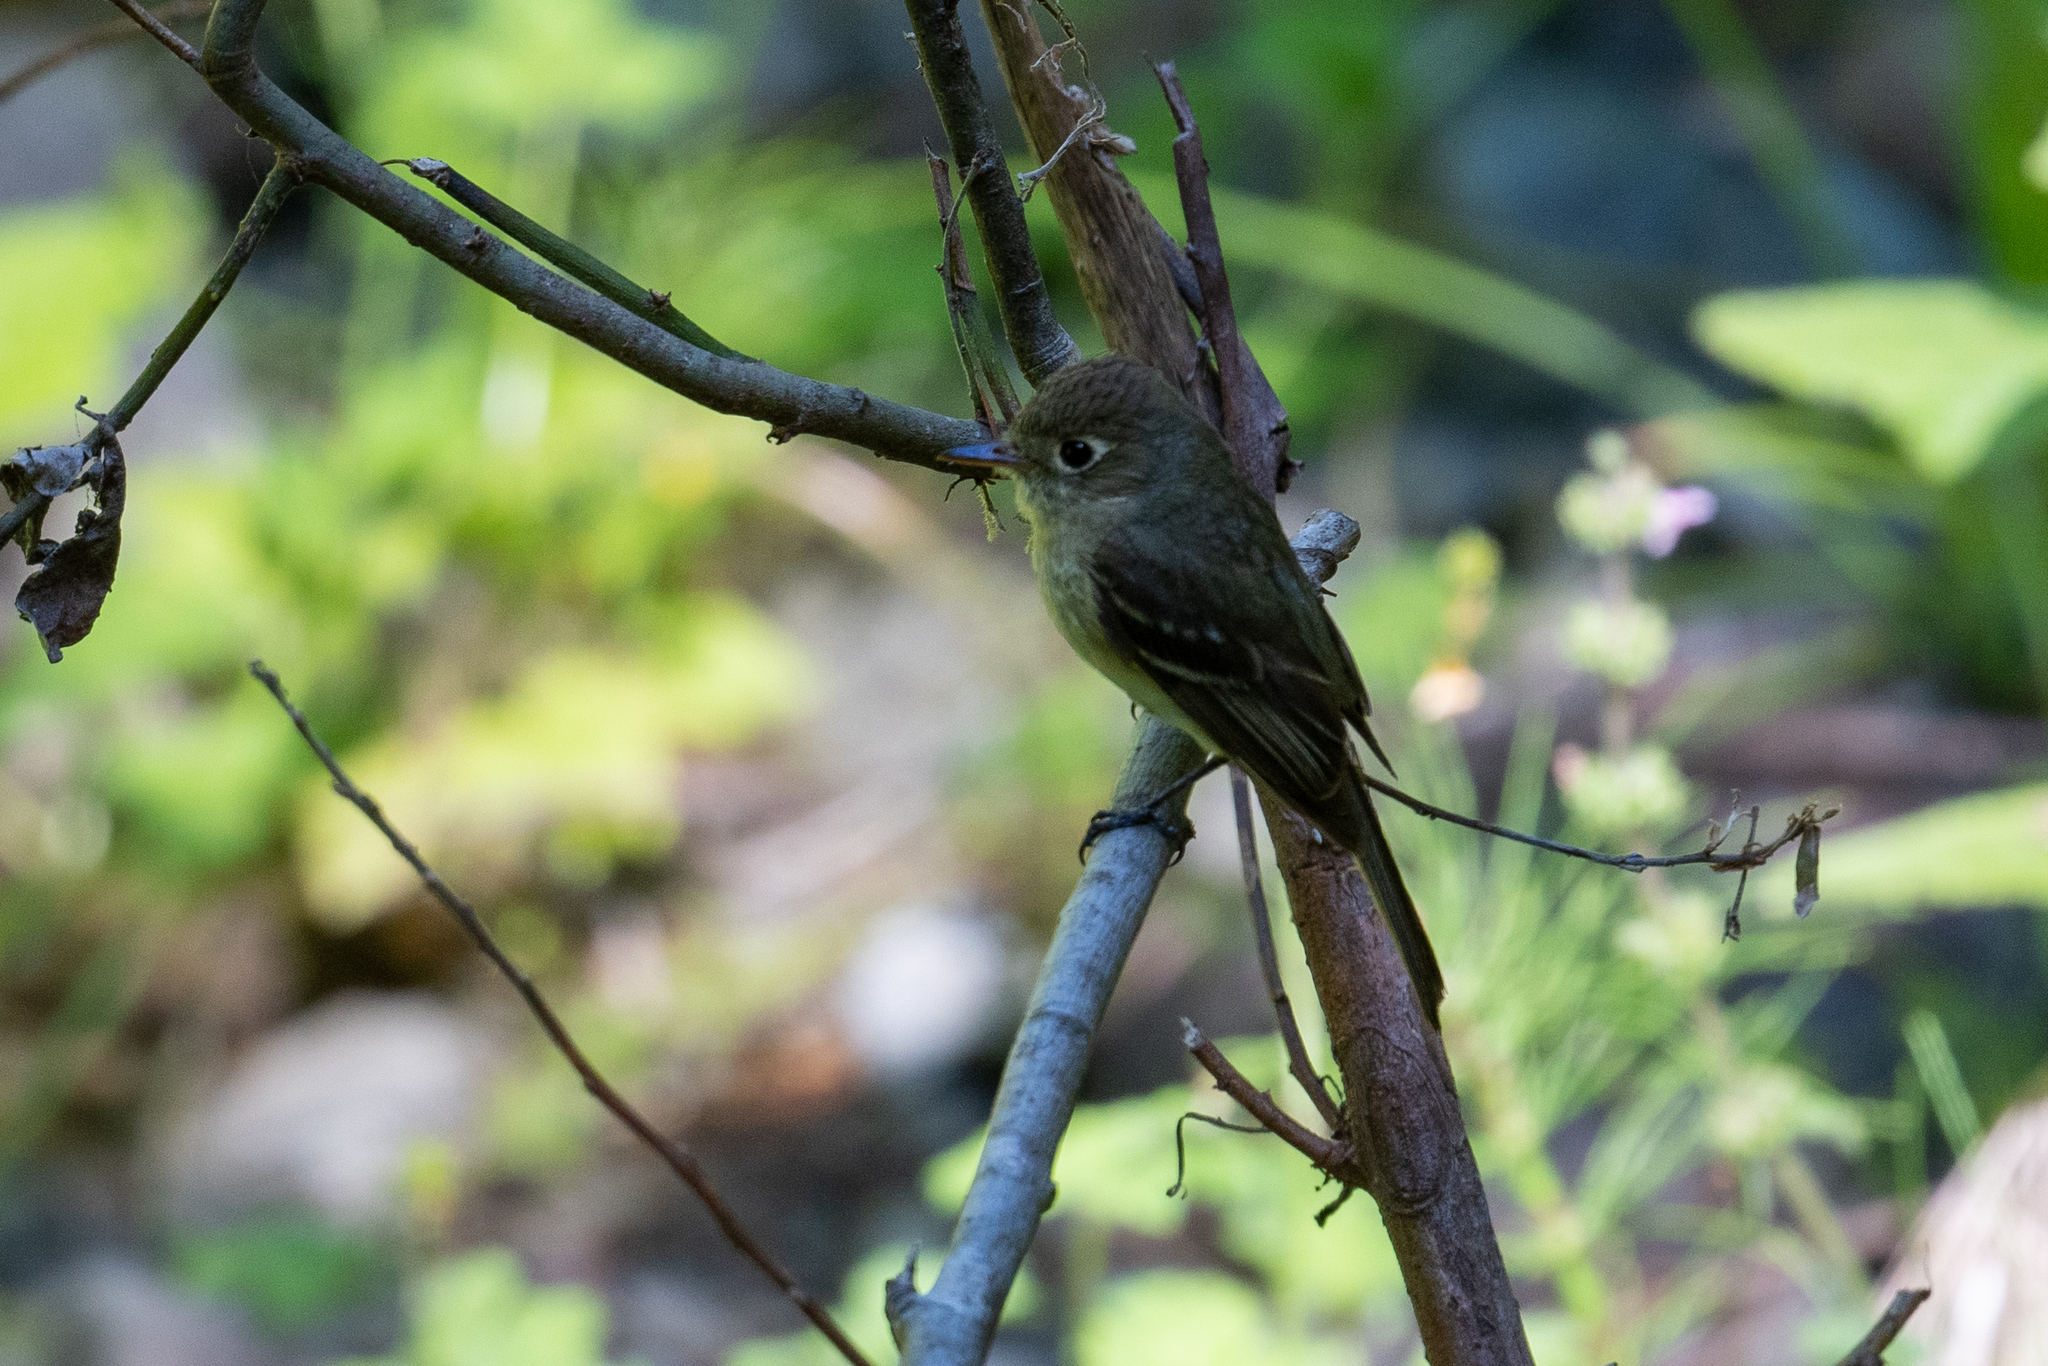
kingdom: Animalia
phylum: Chordata
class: Aves
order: Passeriformes
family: Tyrannidae
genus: Empidonax
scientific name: Empidonax difficilis
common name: Pacific-slope flycatcher
